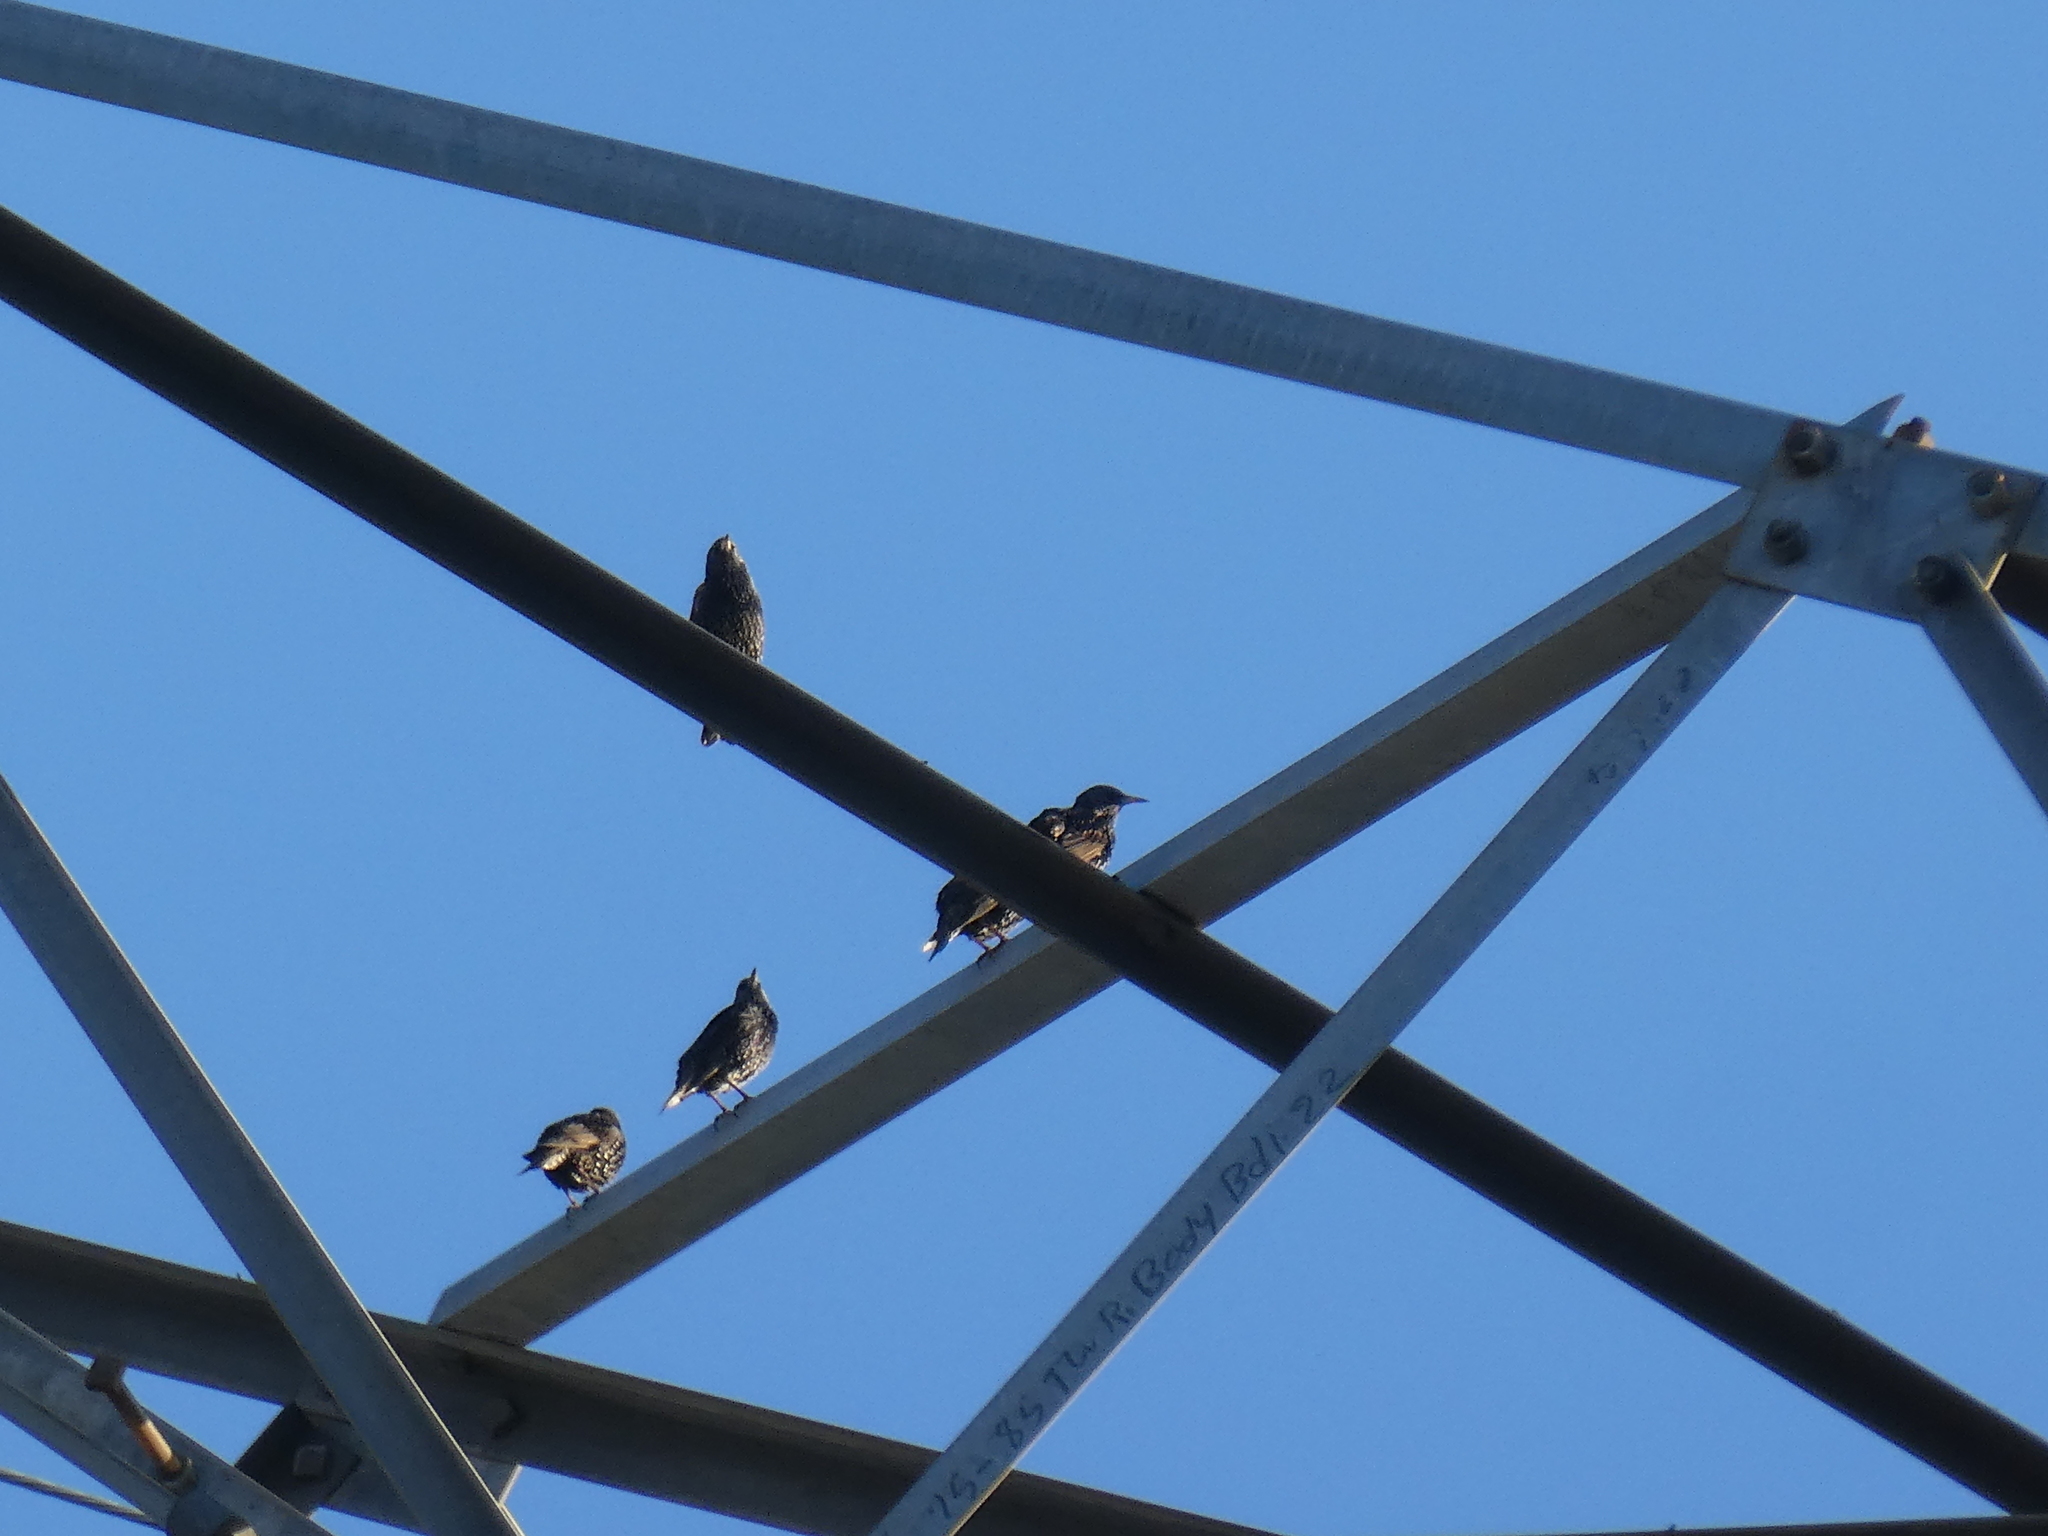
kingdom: Animalia
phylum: Chordata
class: Aves
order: Passeriformes
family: Sturnidae
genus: Sturnus
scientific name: Sturnus vulgaris
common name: Common starling
